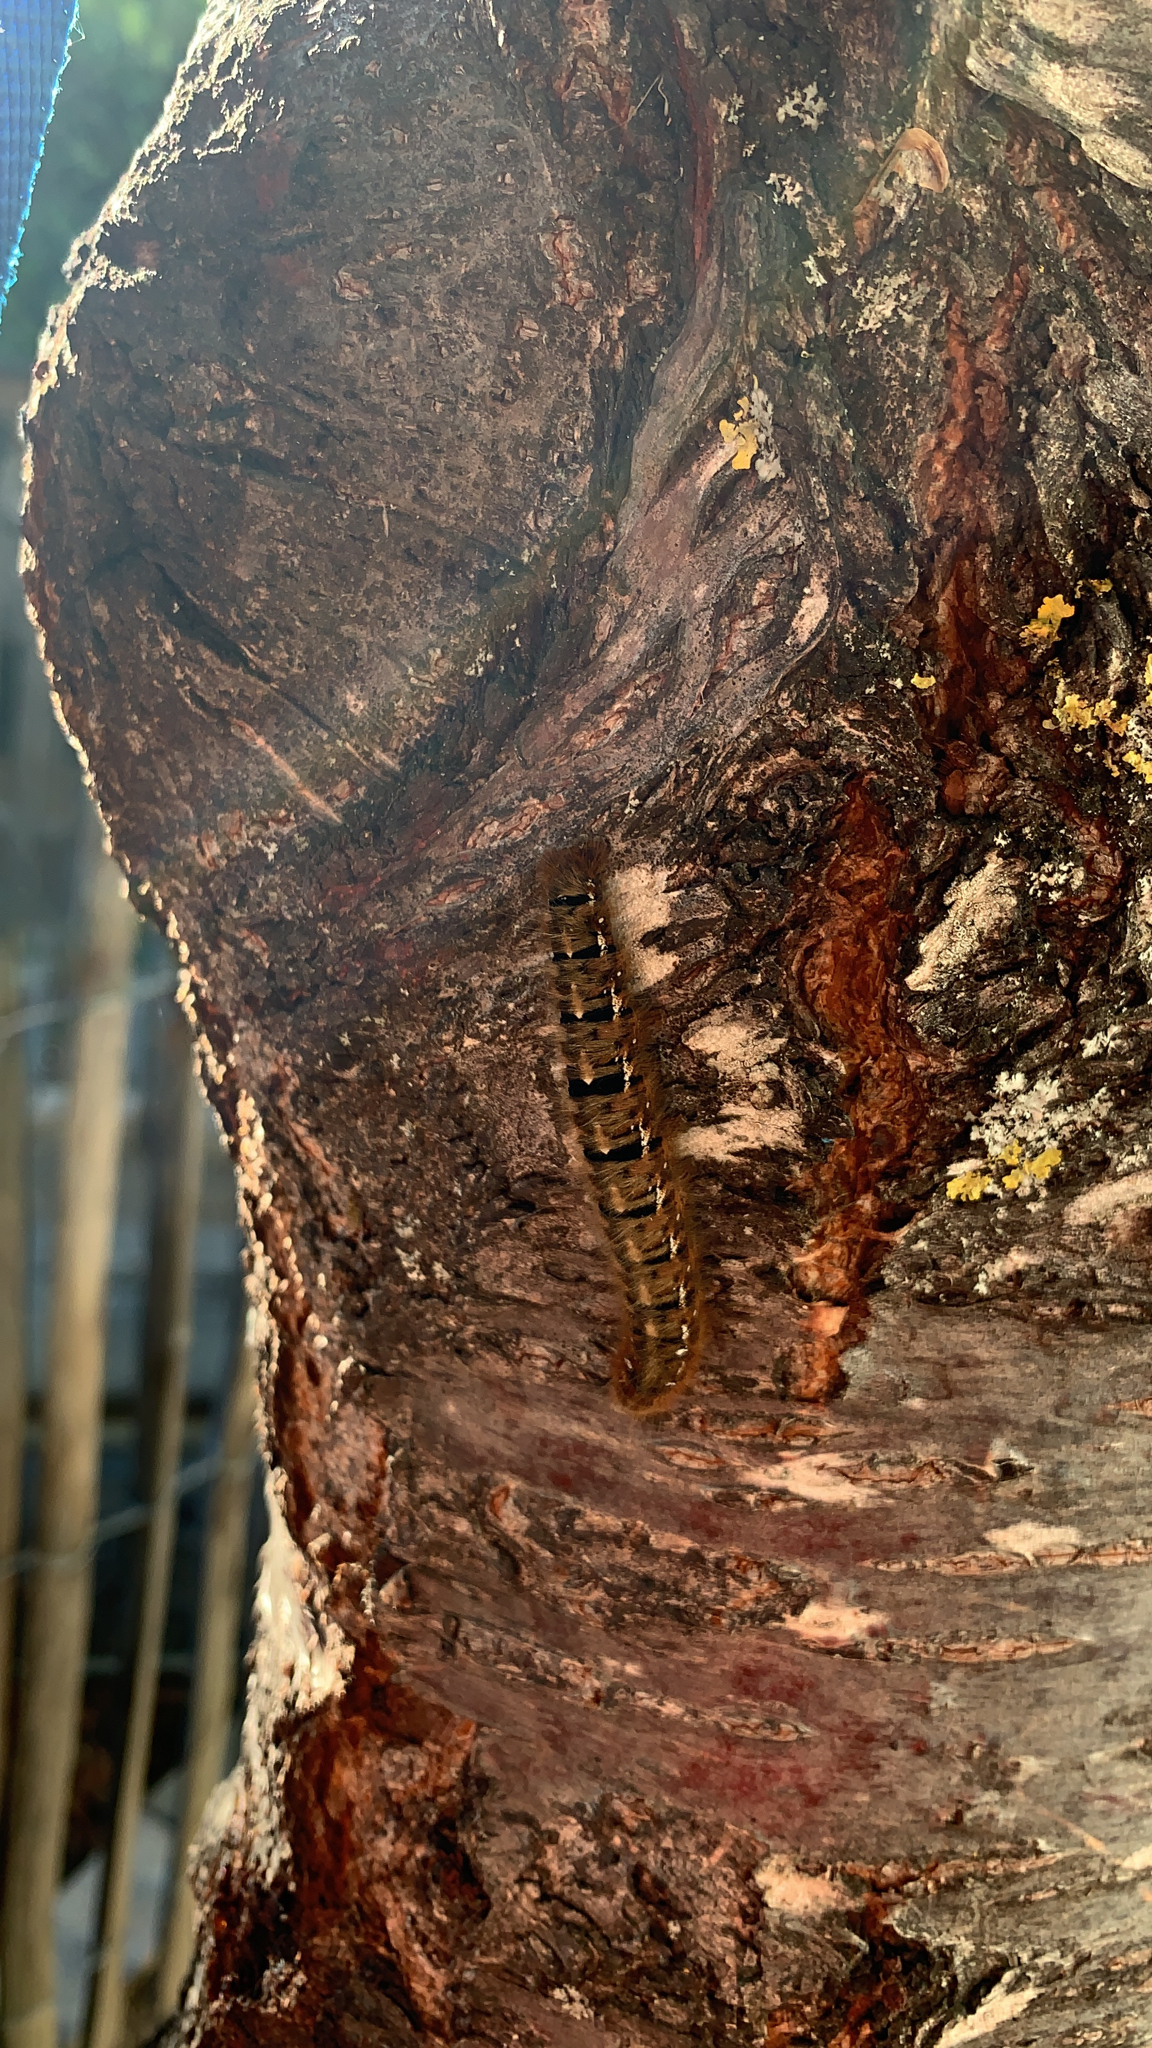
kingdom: Animalia
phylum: Arthropoda
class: Insecta
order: Lepidoptera
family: Lasiocampidae
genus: Lasiocampa
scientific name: Lasiocampa quercus
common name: Oak eggar
